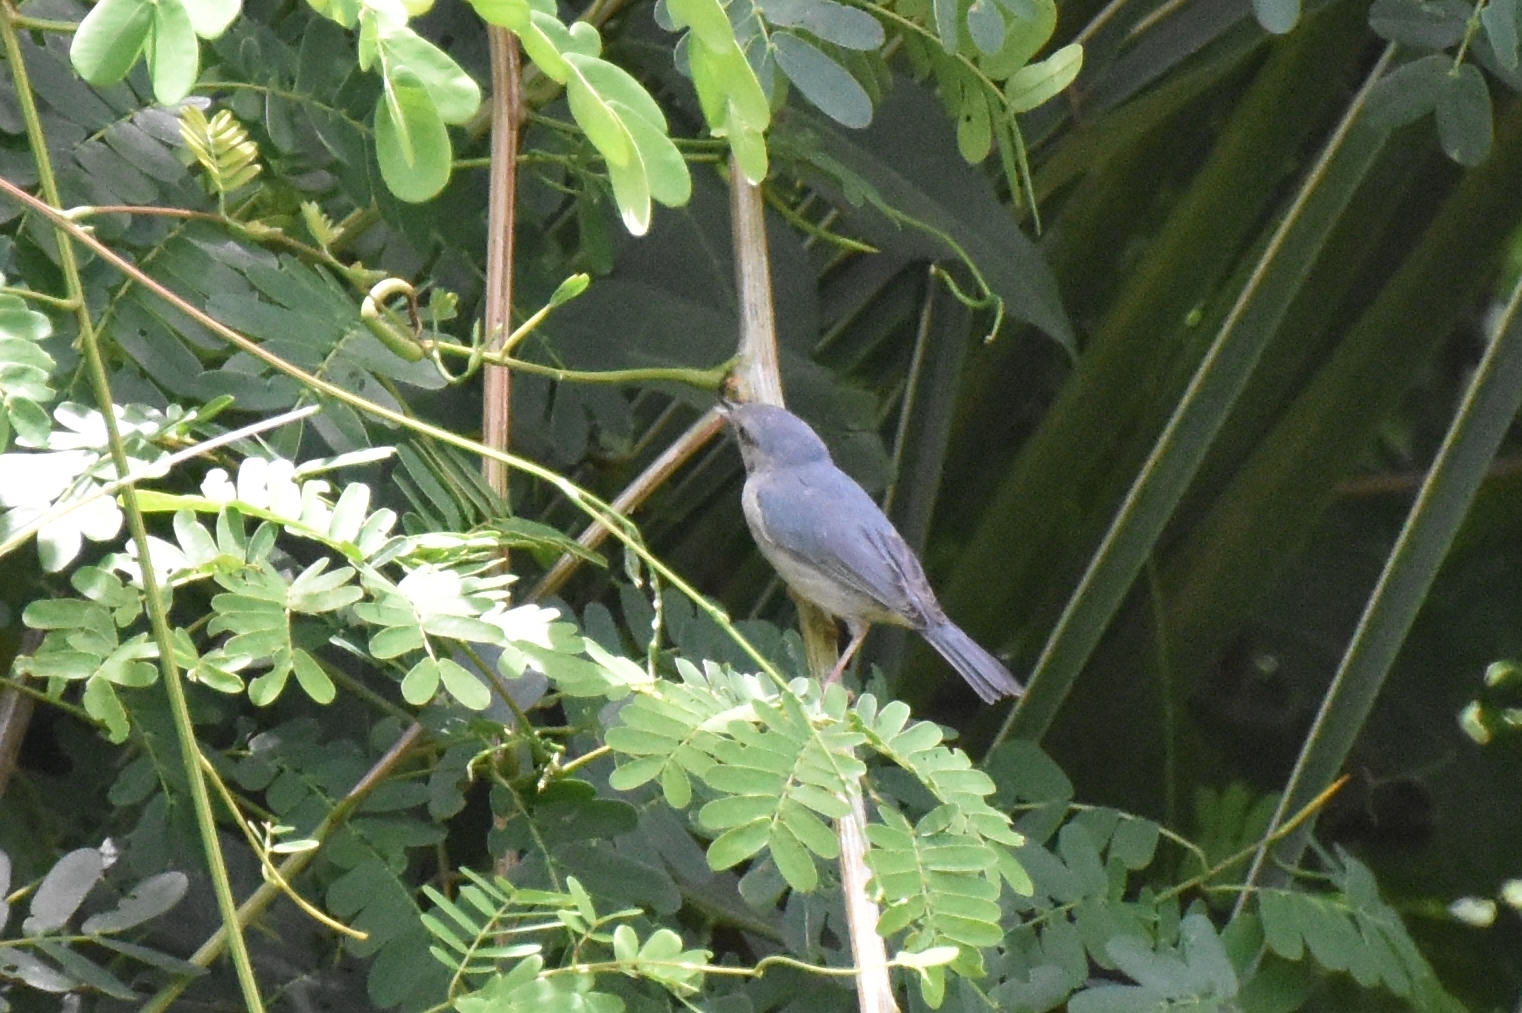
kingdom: Animalia
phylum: Chordata
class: Aves
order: Passeriformes
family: Thraupidae
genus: Conirostrum
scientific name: Conirostrum bicolor
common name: Bicolored conebill
